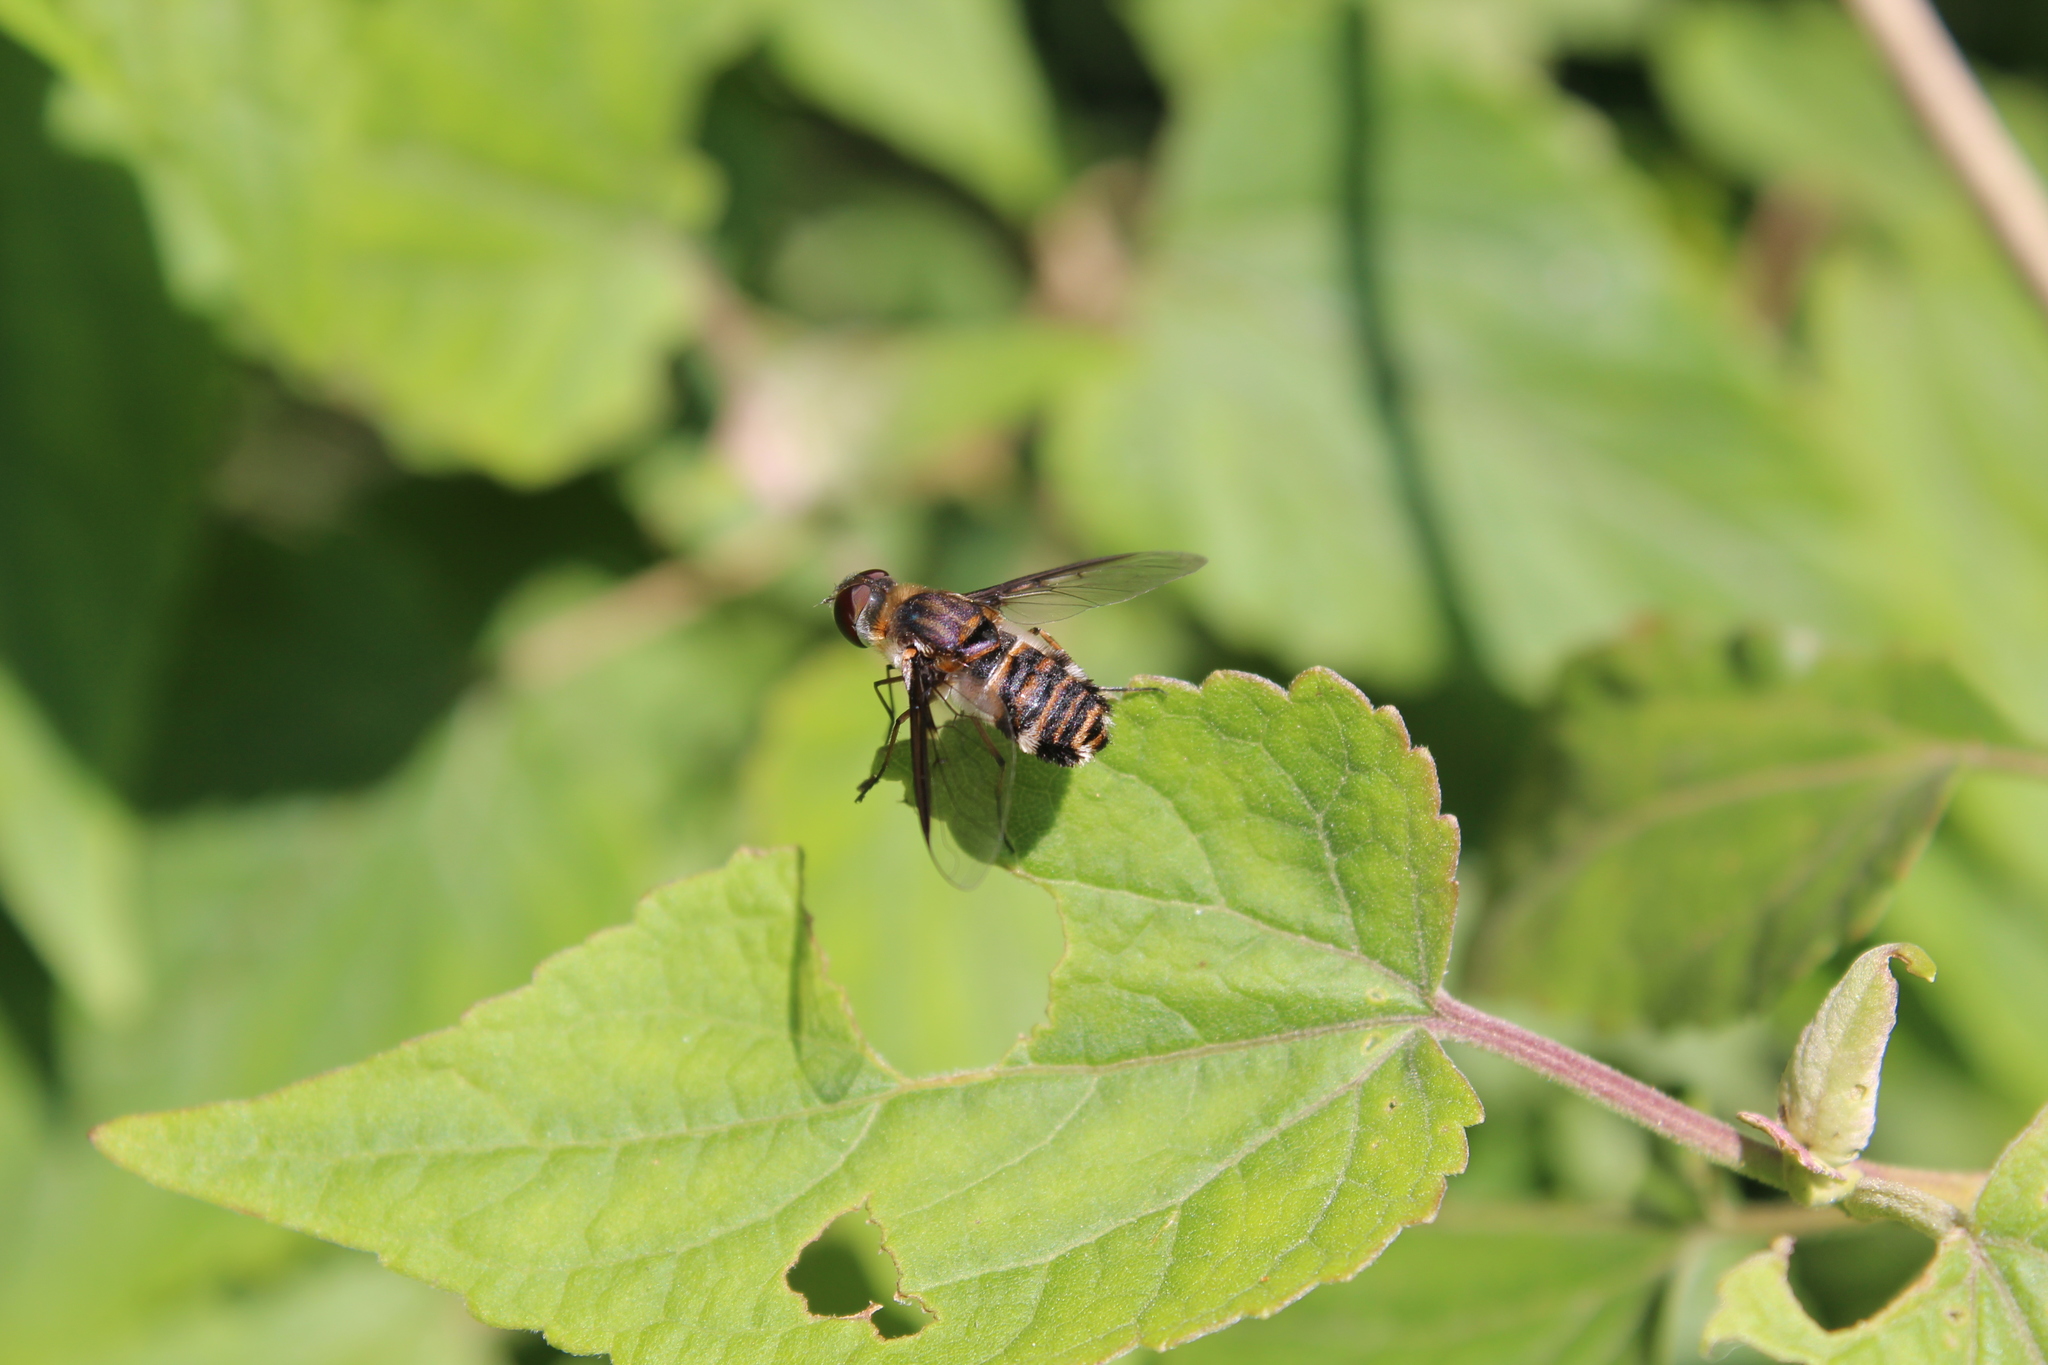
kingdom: Animalia
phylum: Arthropoda
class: Insecta
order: Diptera
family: Bombyliidae
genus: Villa
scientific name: Villa
